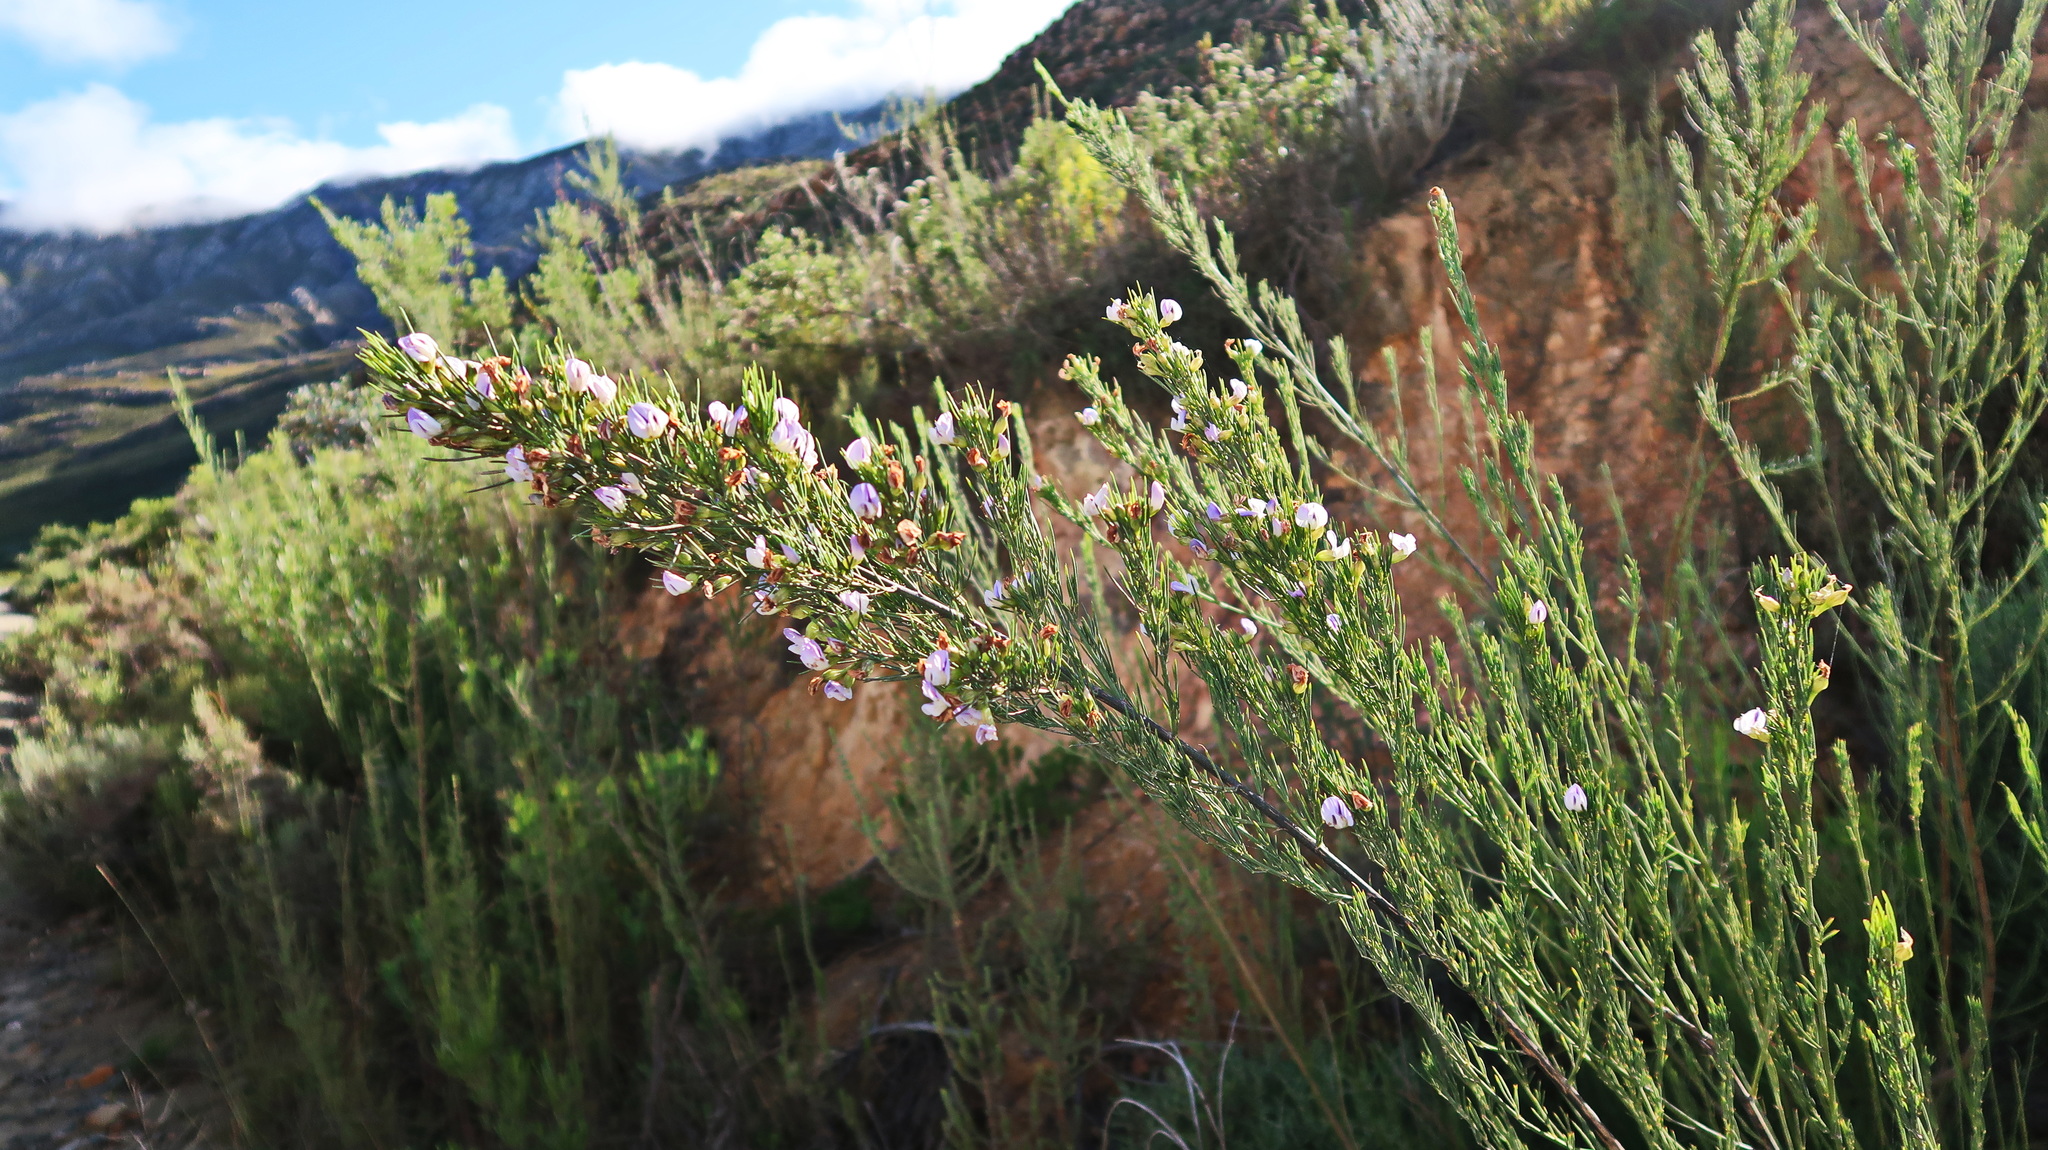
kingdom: Plantae
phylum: Tracheophyta
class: Magnoliopsida
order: Fabales
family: Fabaceae
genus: Psoralea
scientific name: Psoralea
